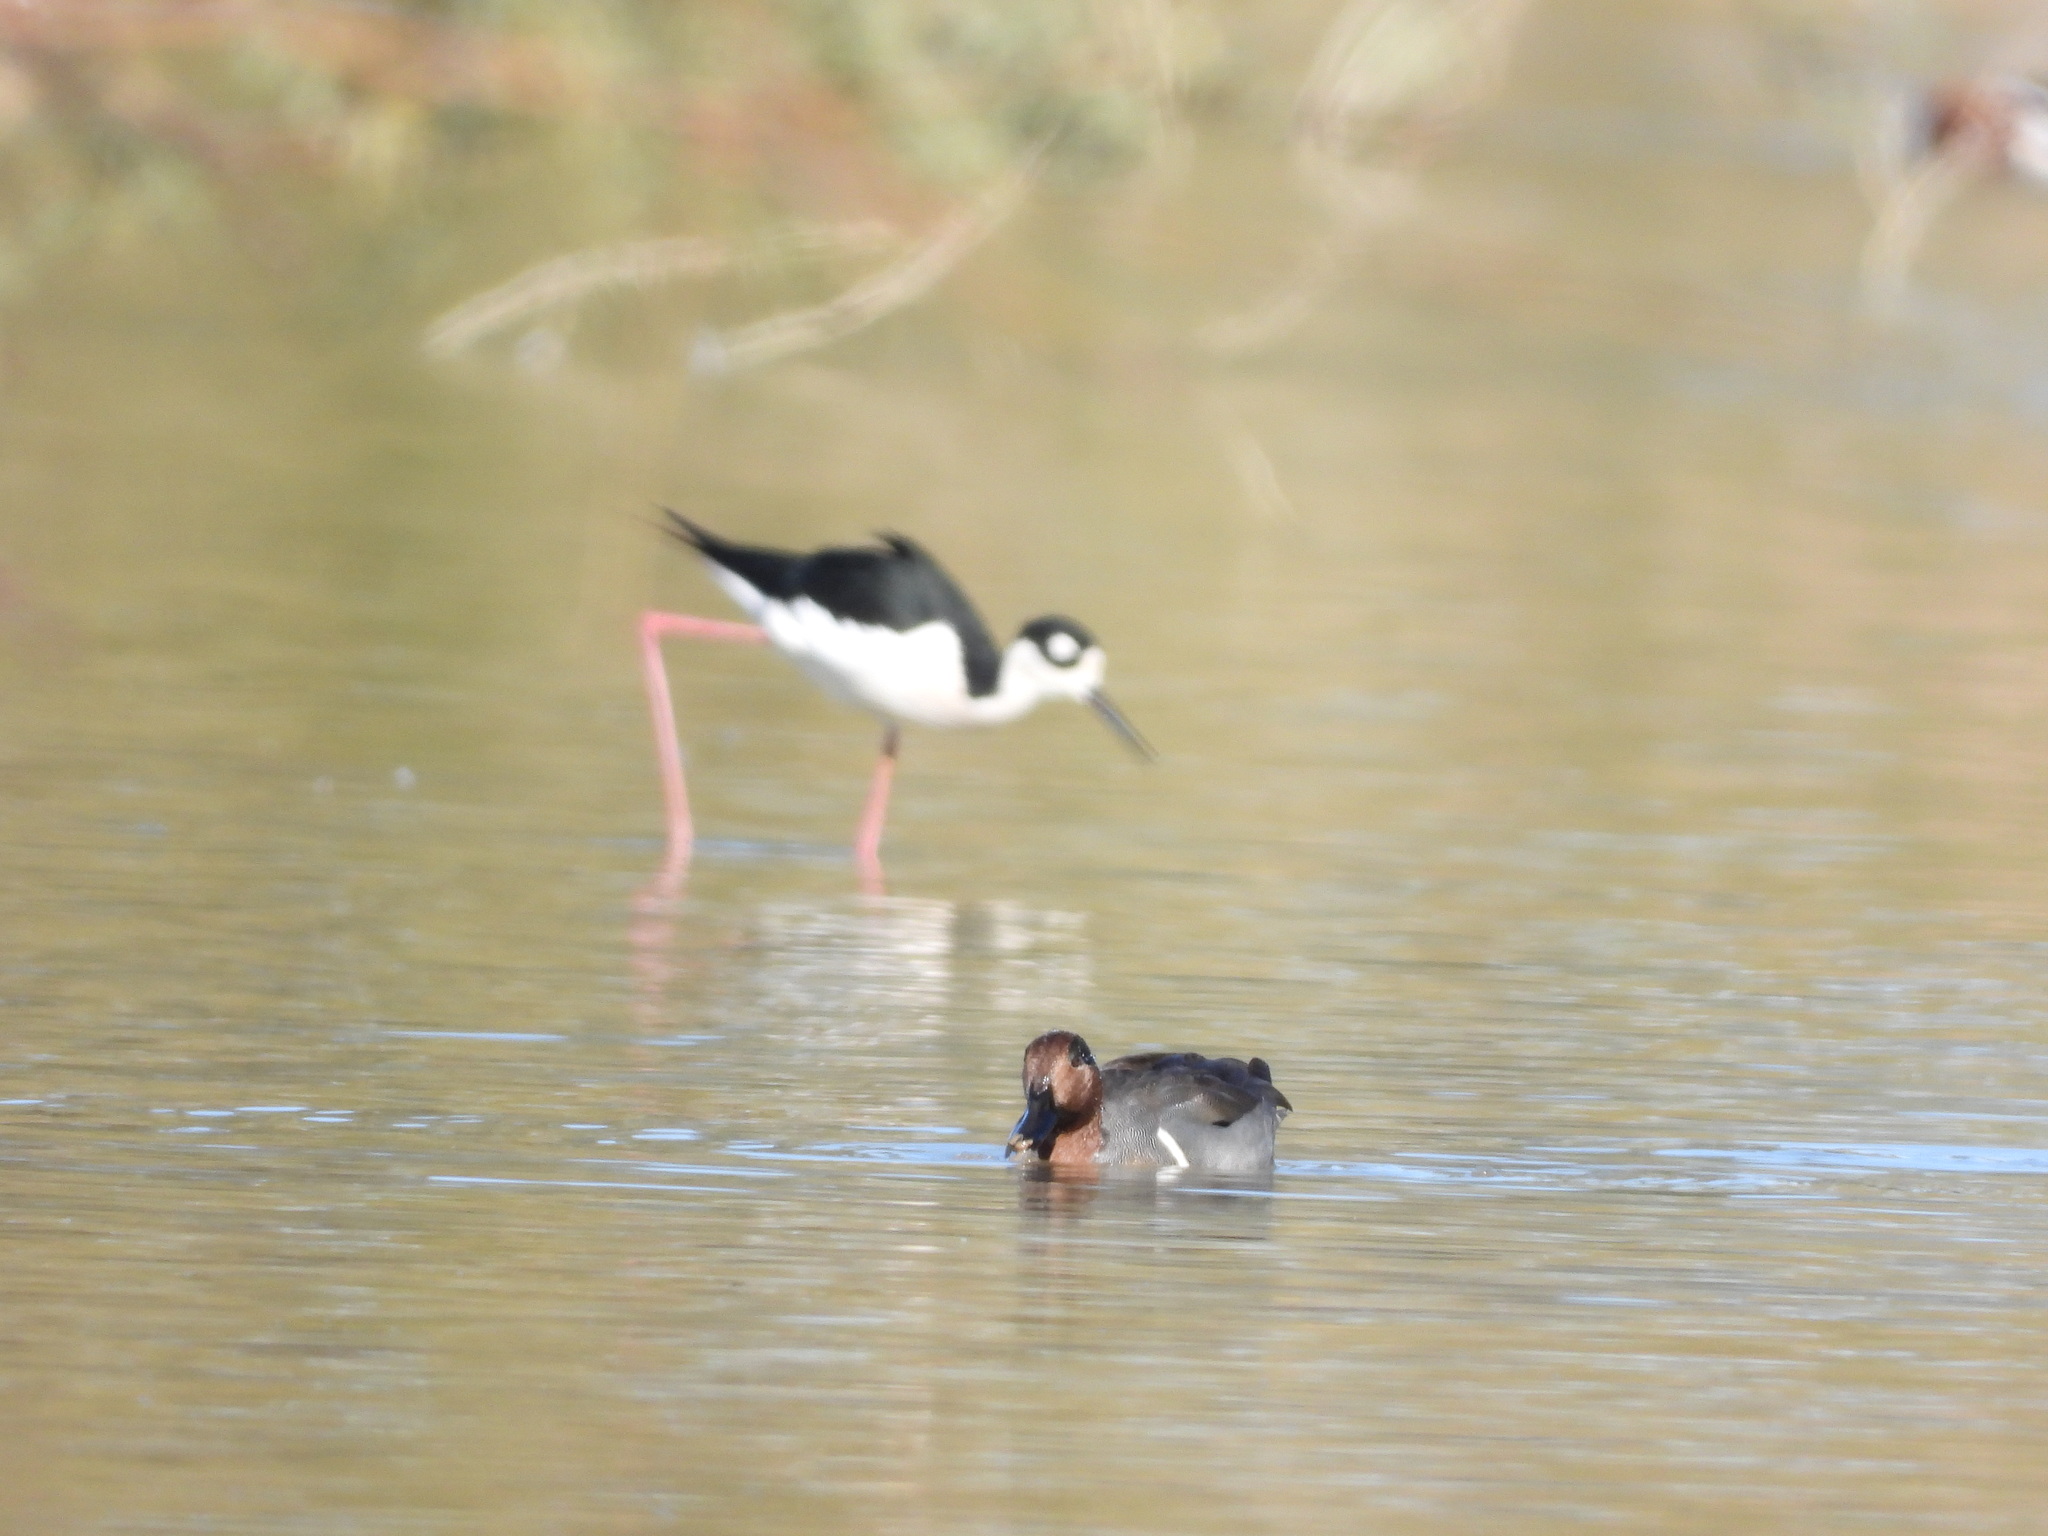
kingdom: Animalia
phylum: Chordata
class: Aves
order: Charadriiformes
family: Recurvirostridae
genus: Himantopus
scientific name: Himantopus mexicanus
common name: Black-necked stilt
